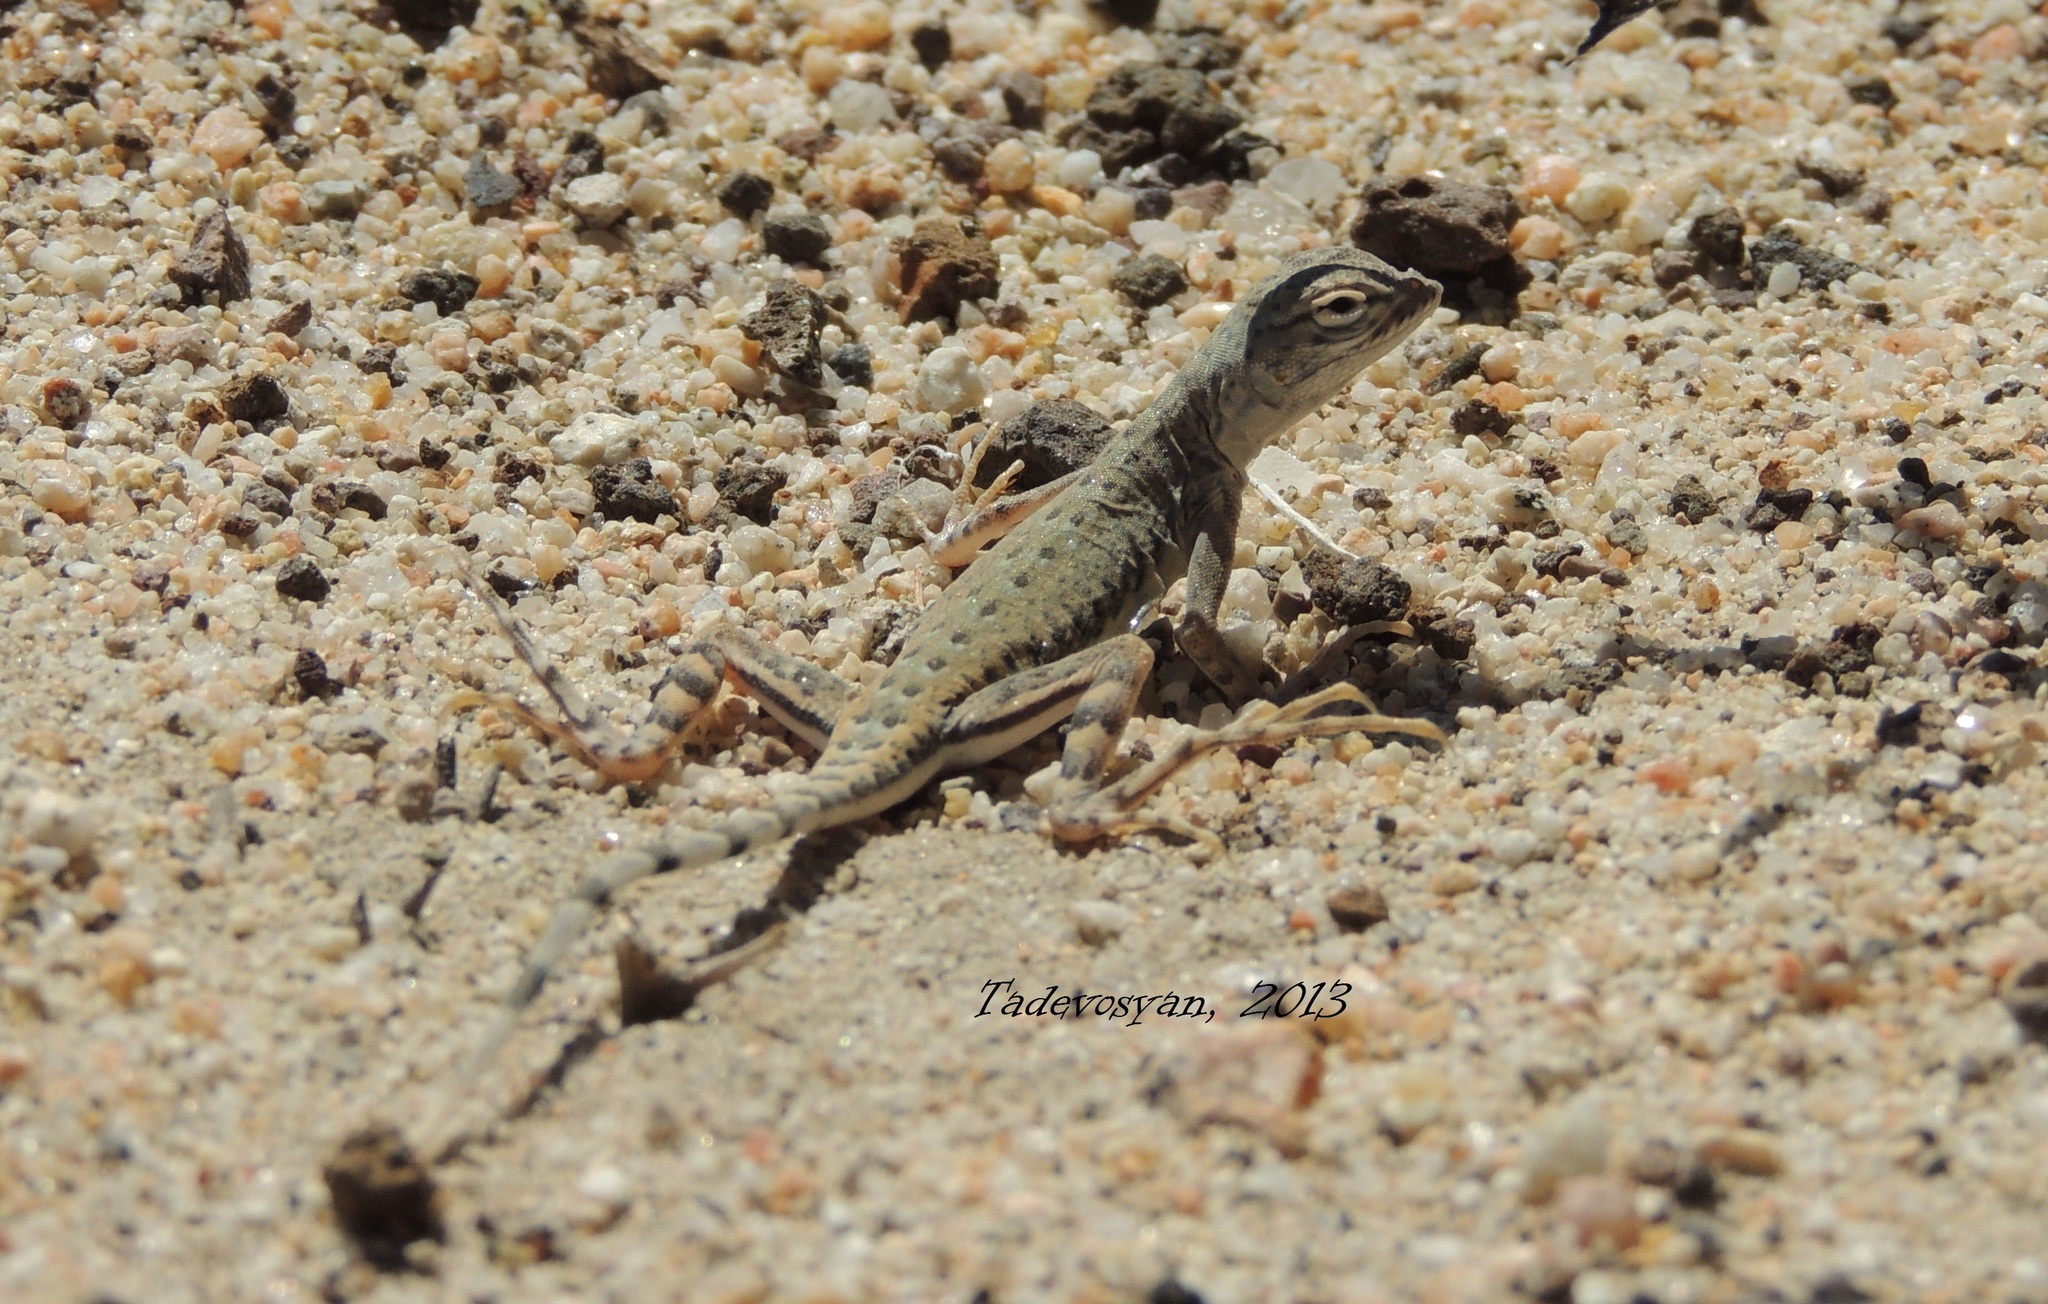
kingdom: Animalia
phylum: Chordata
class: Squamata
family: Phrynosomatidae
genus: Callisaurus
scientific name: Callisaurus draconoides
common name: Zebra-tailed lizard
